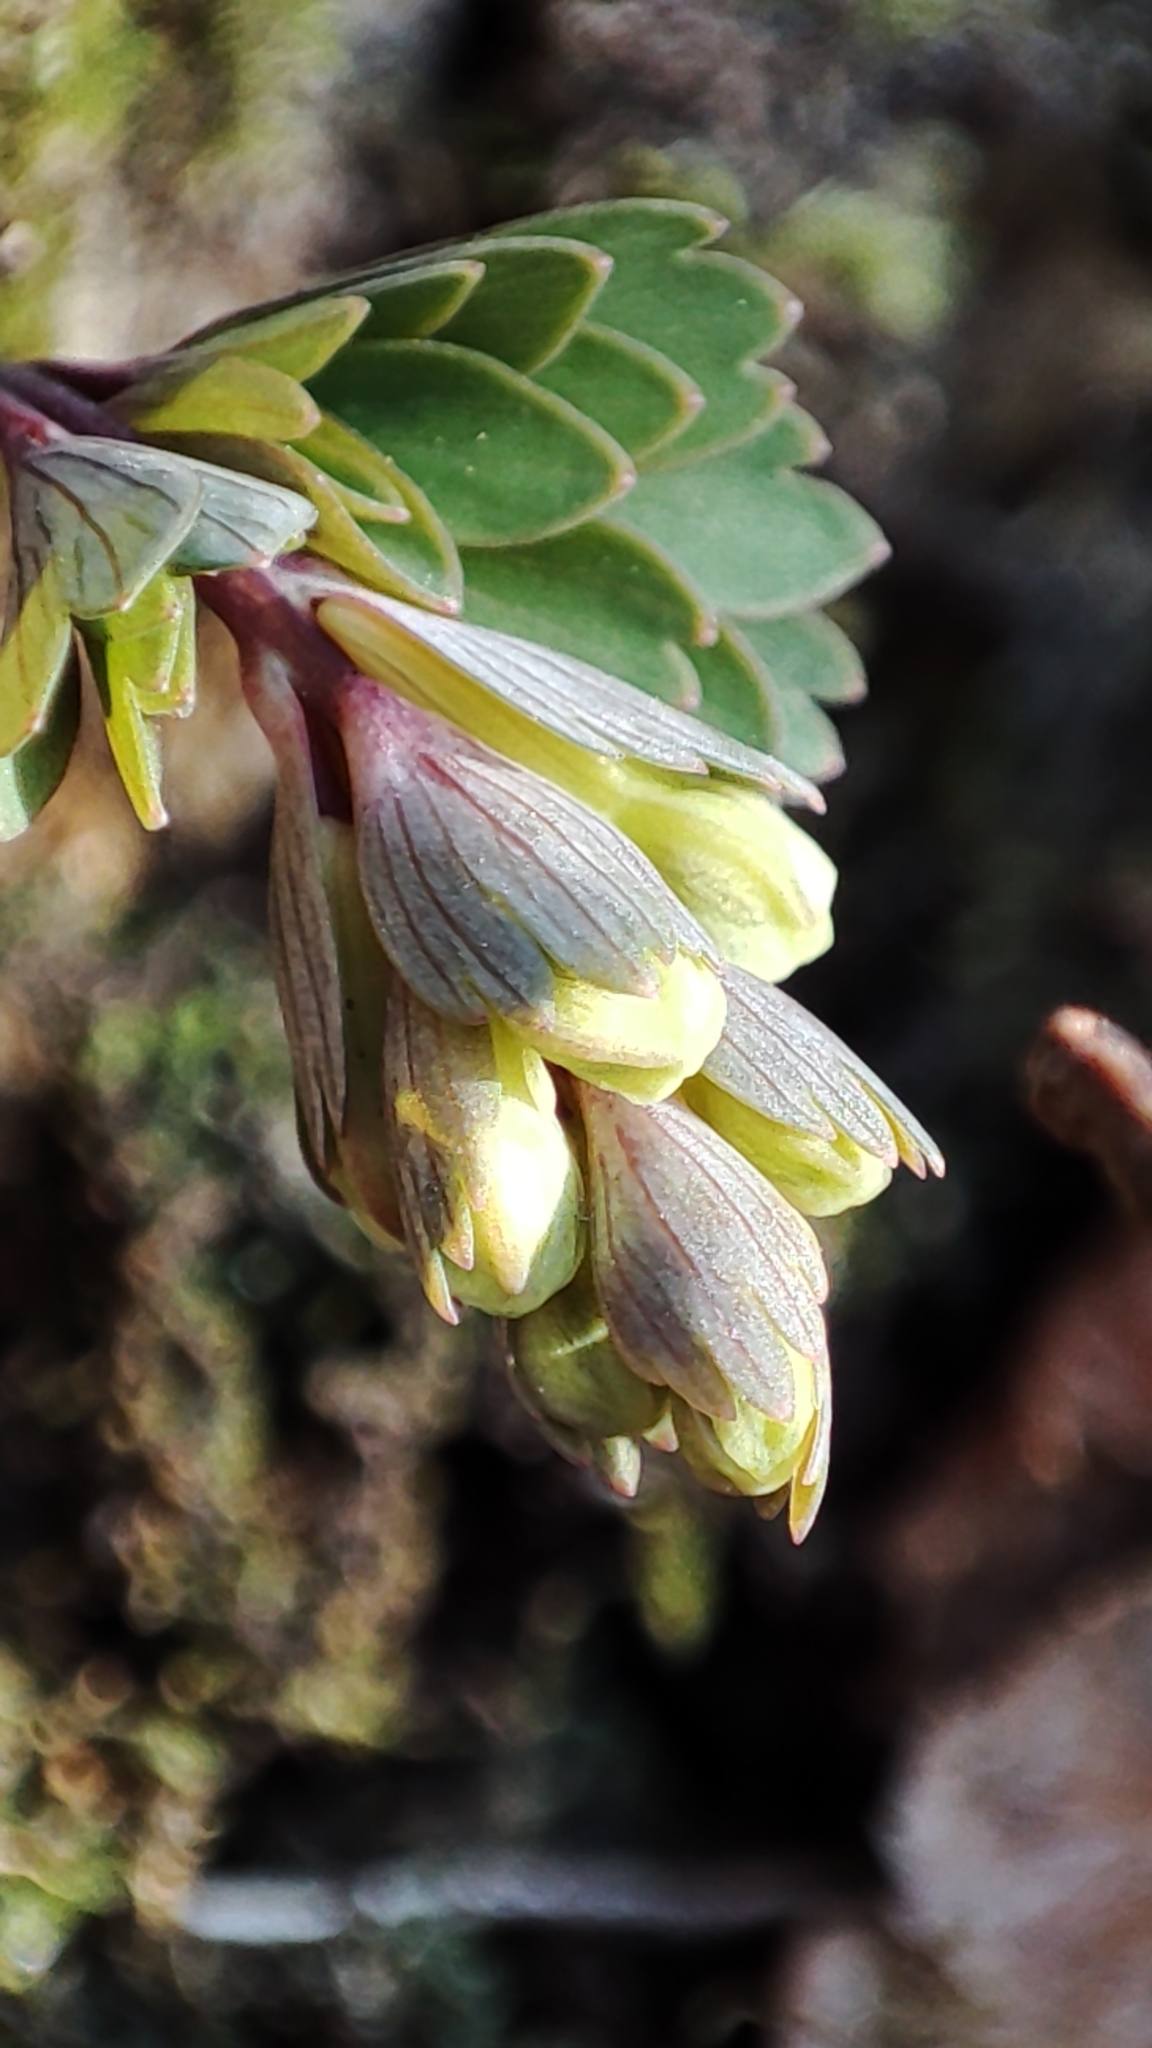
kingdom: Plantae
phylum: Tracheophyta
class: Magnoliopsida
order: Ranunculales
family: Papaveraceae
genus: Corydalis
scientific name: Corydalis solida
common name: Bird-in-a-bush
